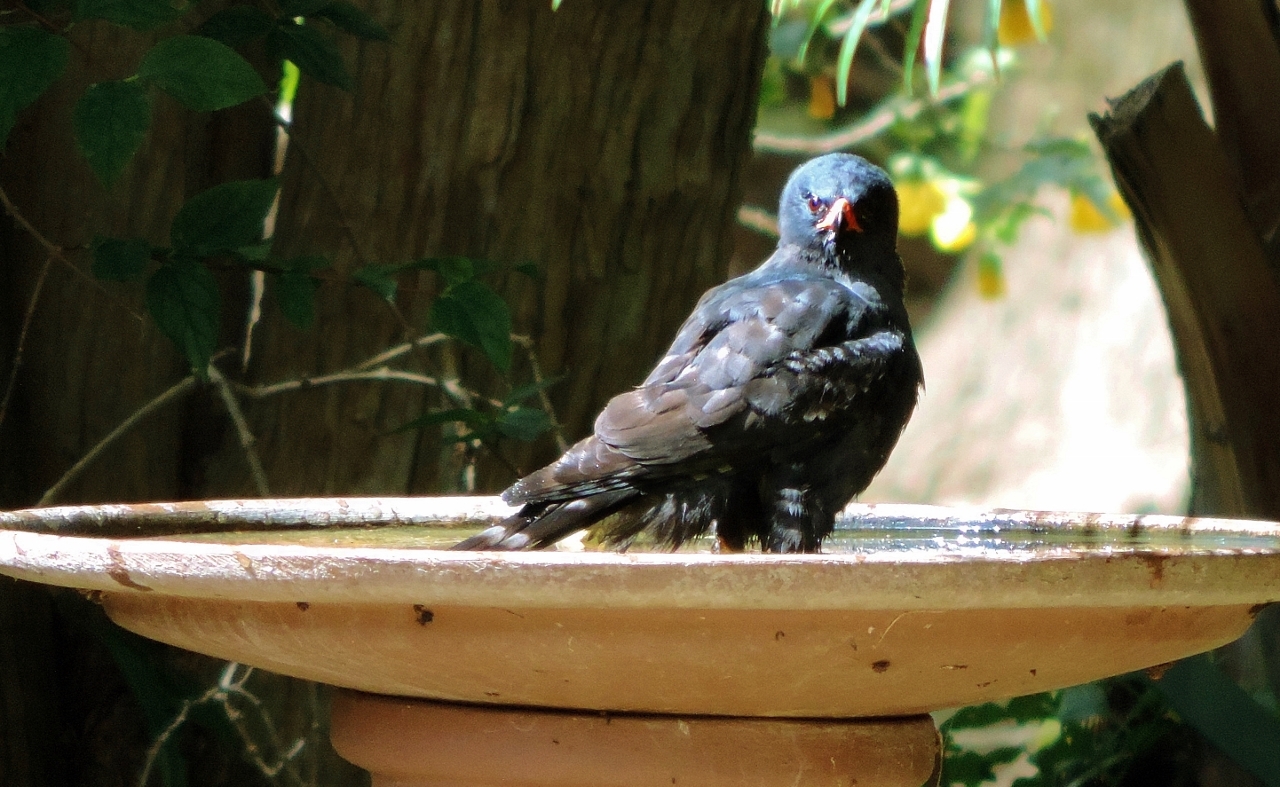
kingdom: Animalia
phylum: Chordata
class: Aves
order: Accipitriformes
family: Accipitridae
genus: Micronisus
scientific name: Micronisus gabar
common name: Gabar goshawk
